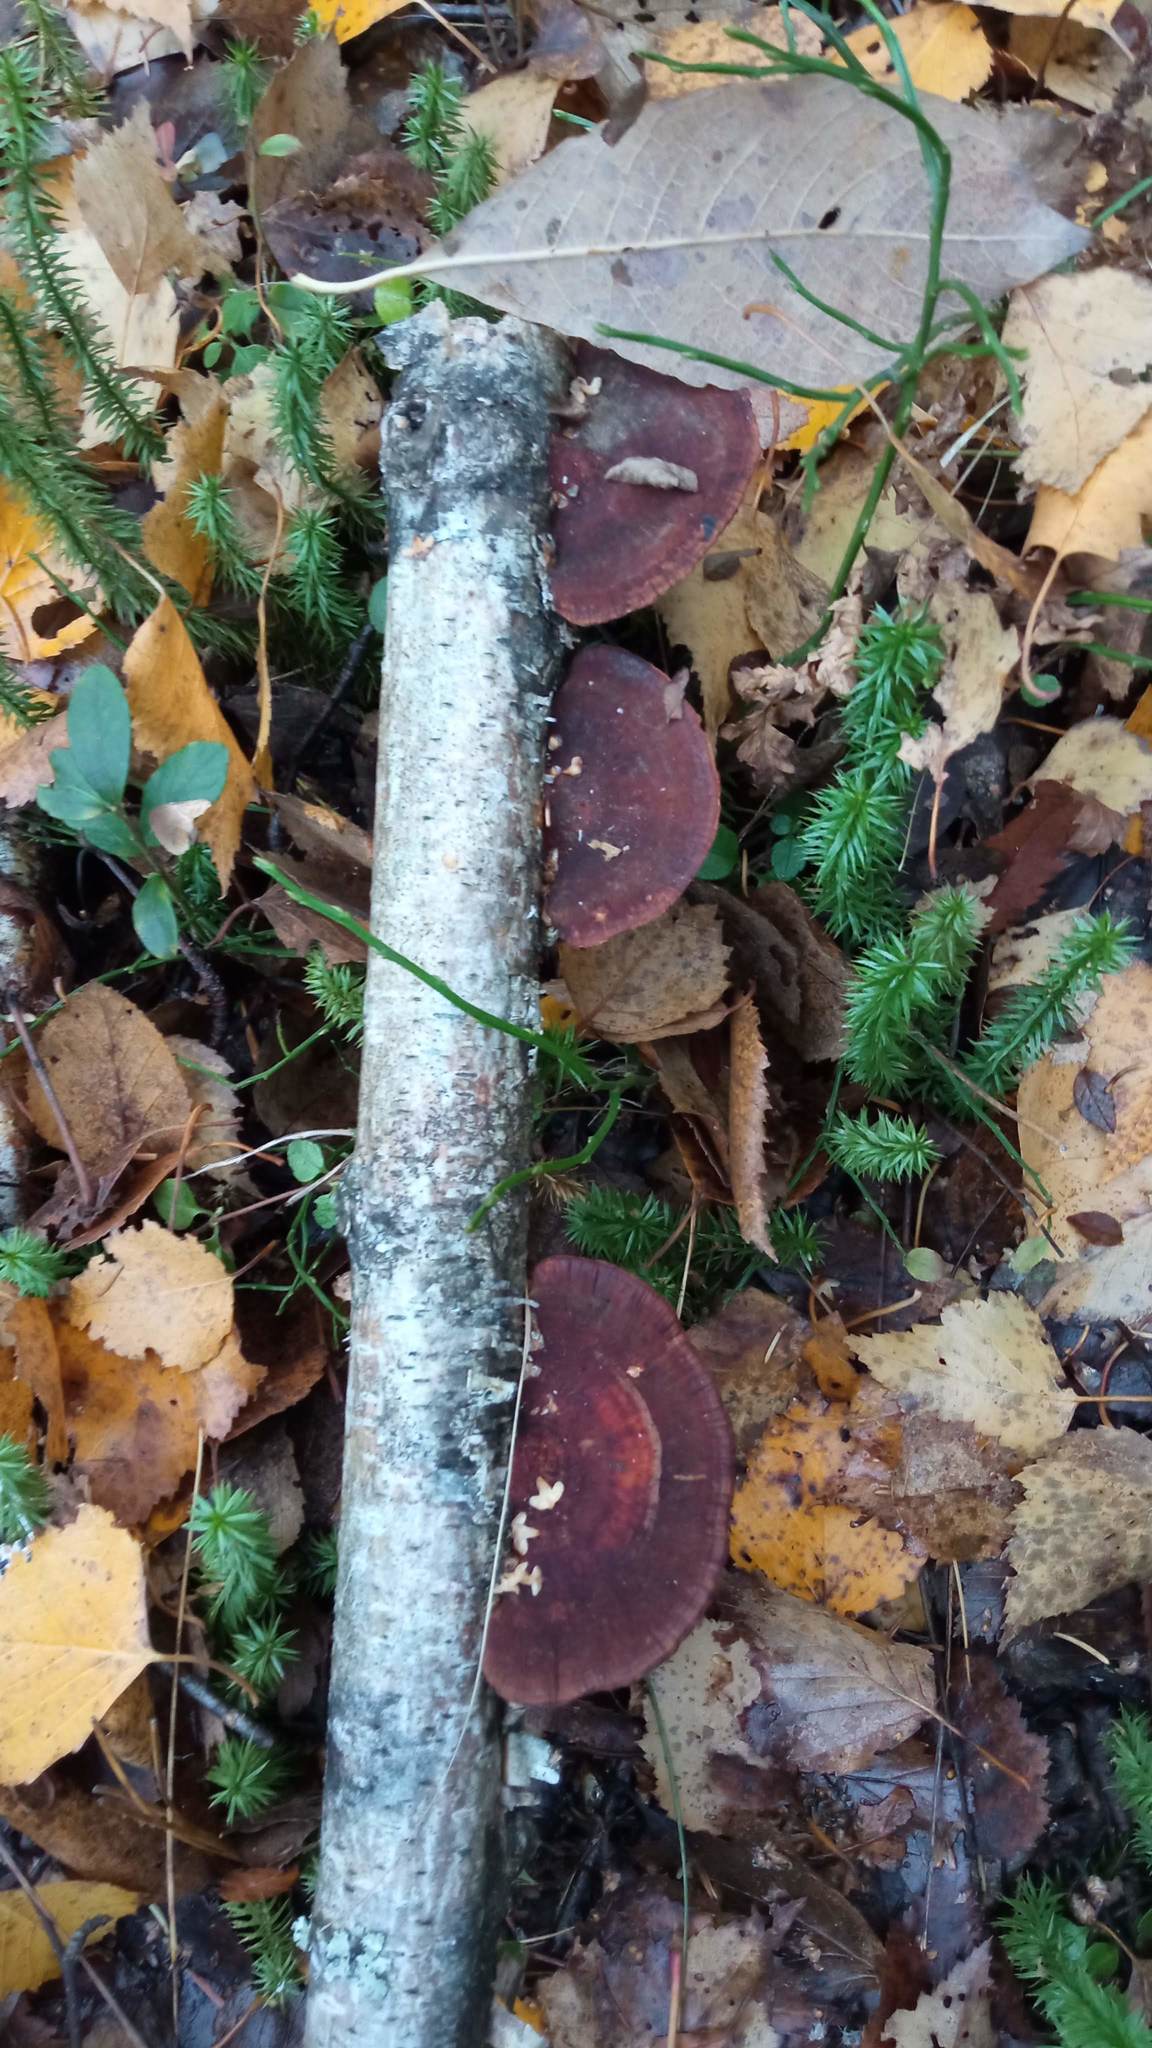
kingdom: Fungi
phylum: Basidiomycota
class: Agaricomycetes
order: Polyporales
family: Polyporaceae
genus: Daedaleopsis
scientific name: Daedaleopsis tricolor
